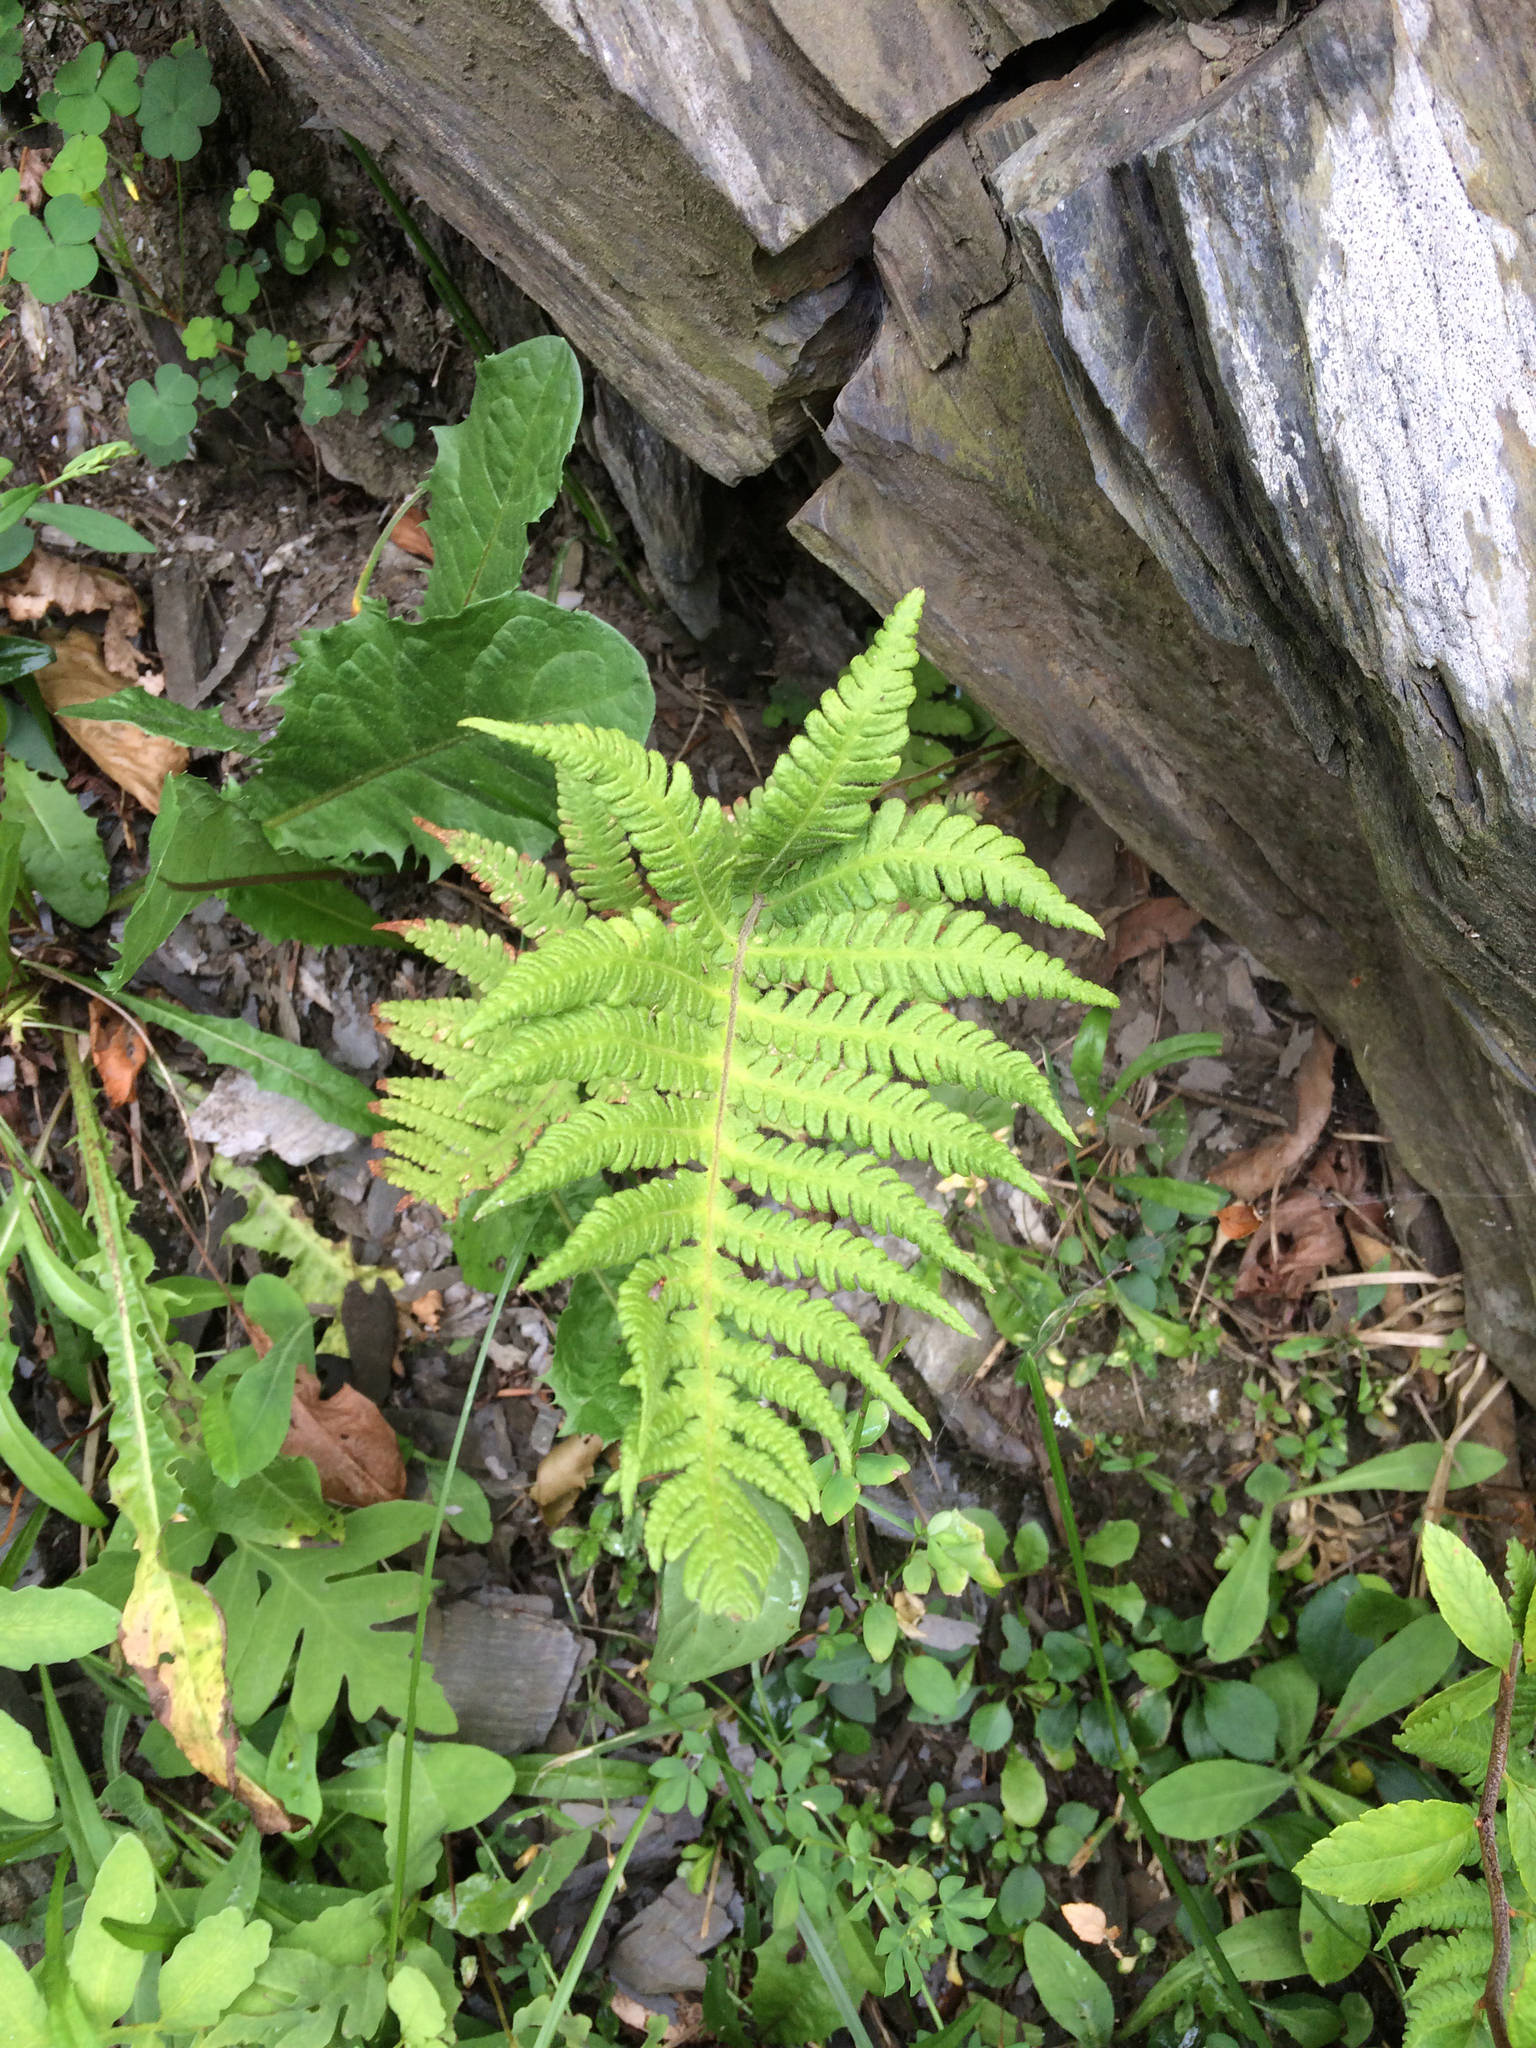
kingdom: Plantae
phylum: Tracheophyta
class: Polypodiopsida
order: Polypodiales
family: Thelypteridaceae
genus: Phegopteris
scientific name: Phegopteris connectilis
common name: Beech fern
